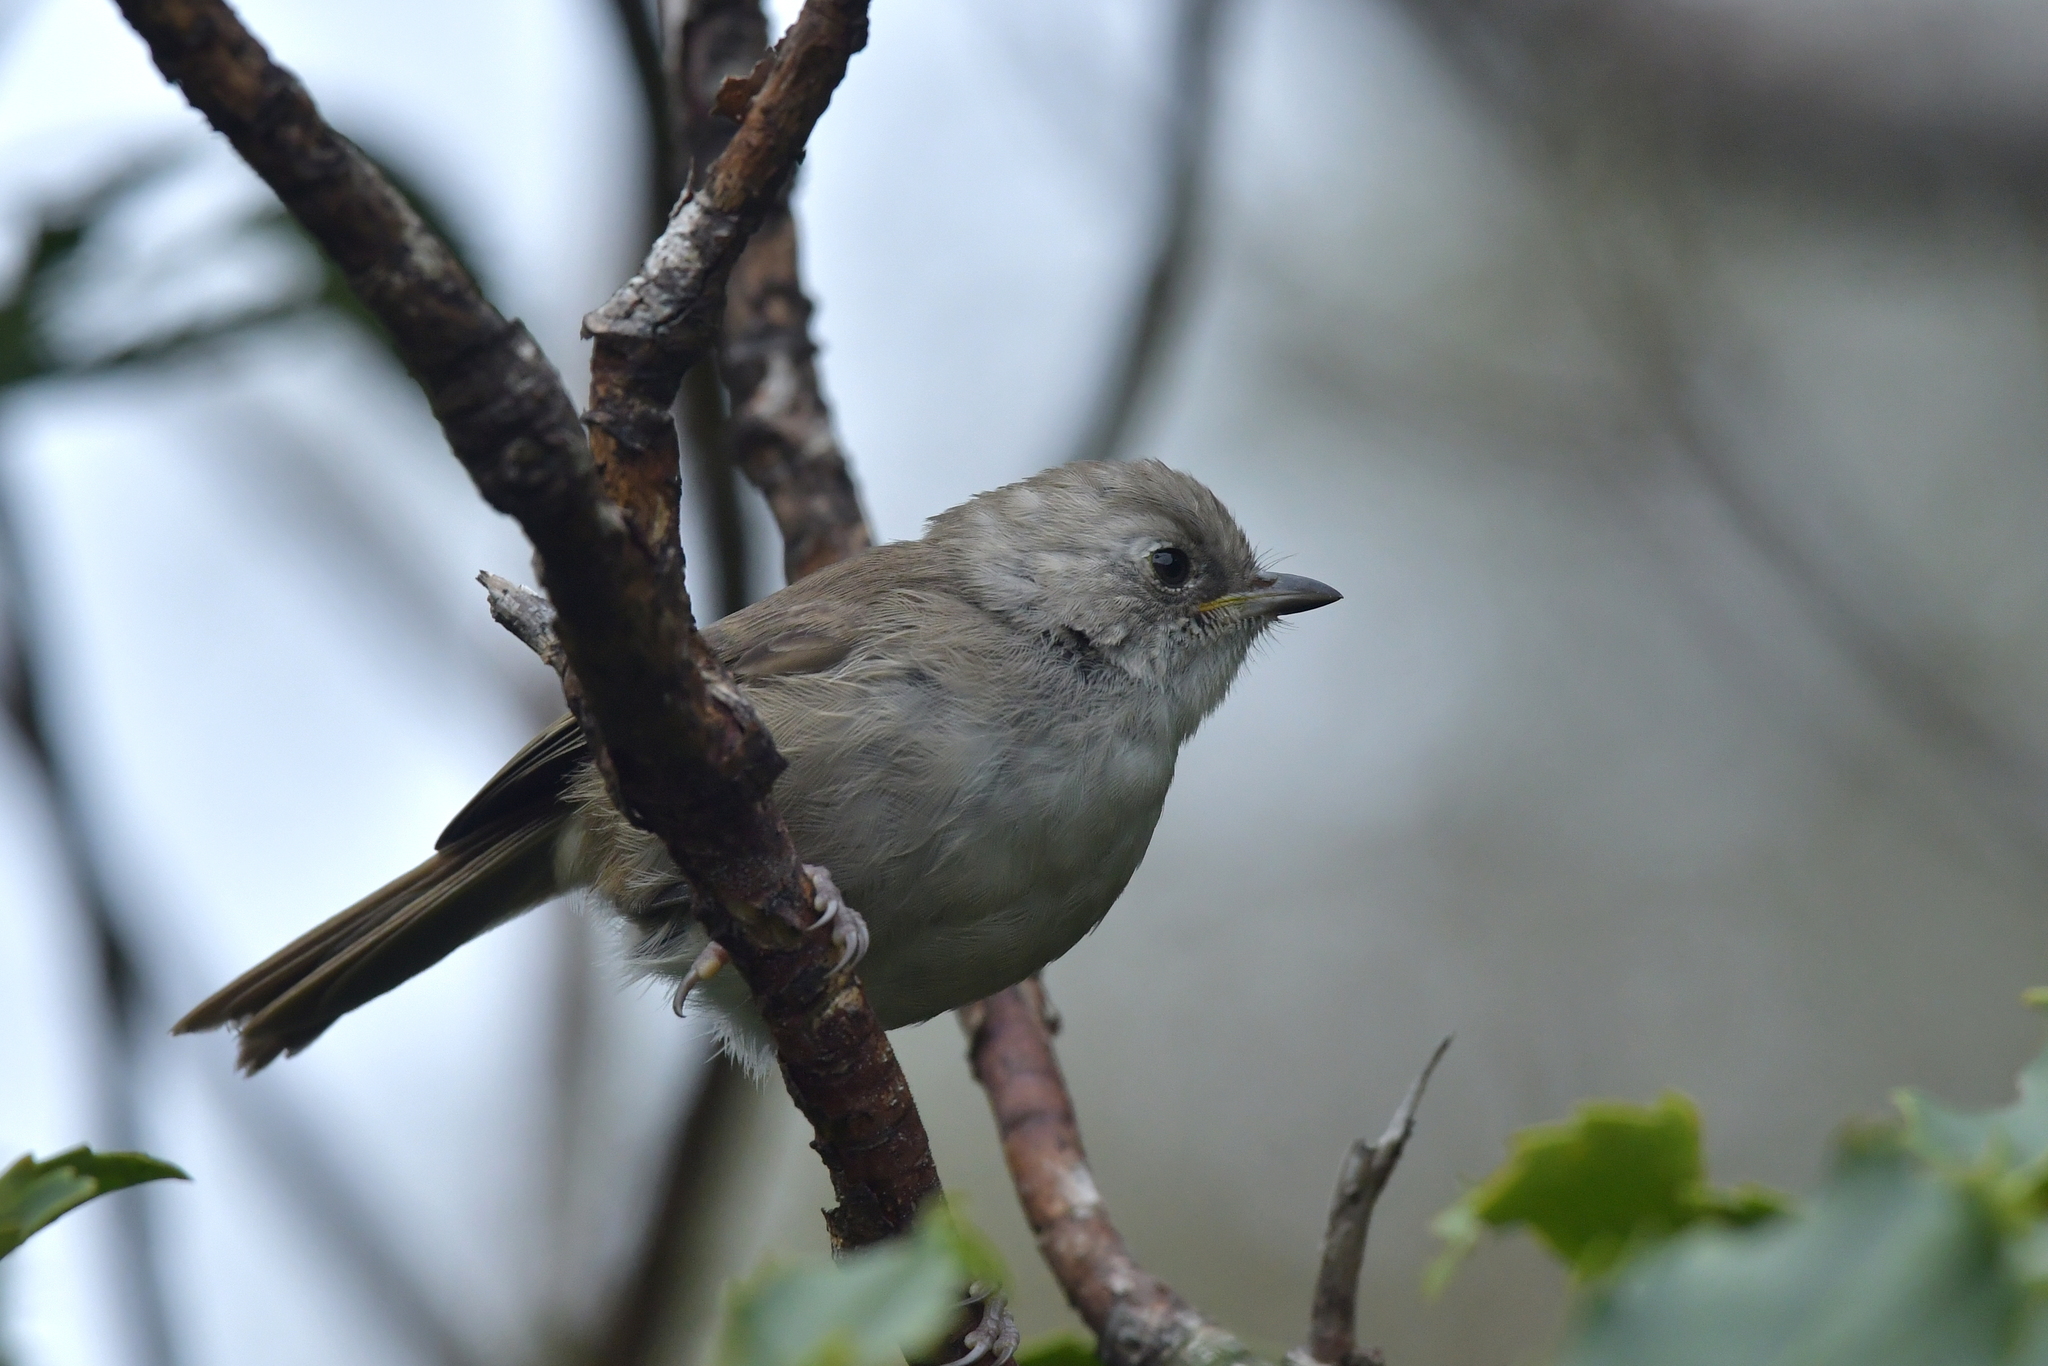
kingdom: Animalia
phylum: Chordata
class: Aves
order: Passeriformes
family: Acanthizidae
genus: Mohoua
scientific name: Mohoua albicilla
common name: Whitehead
